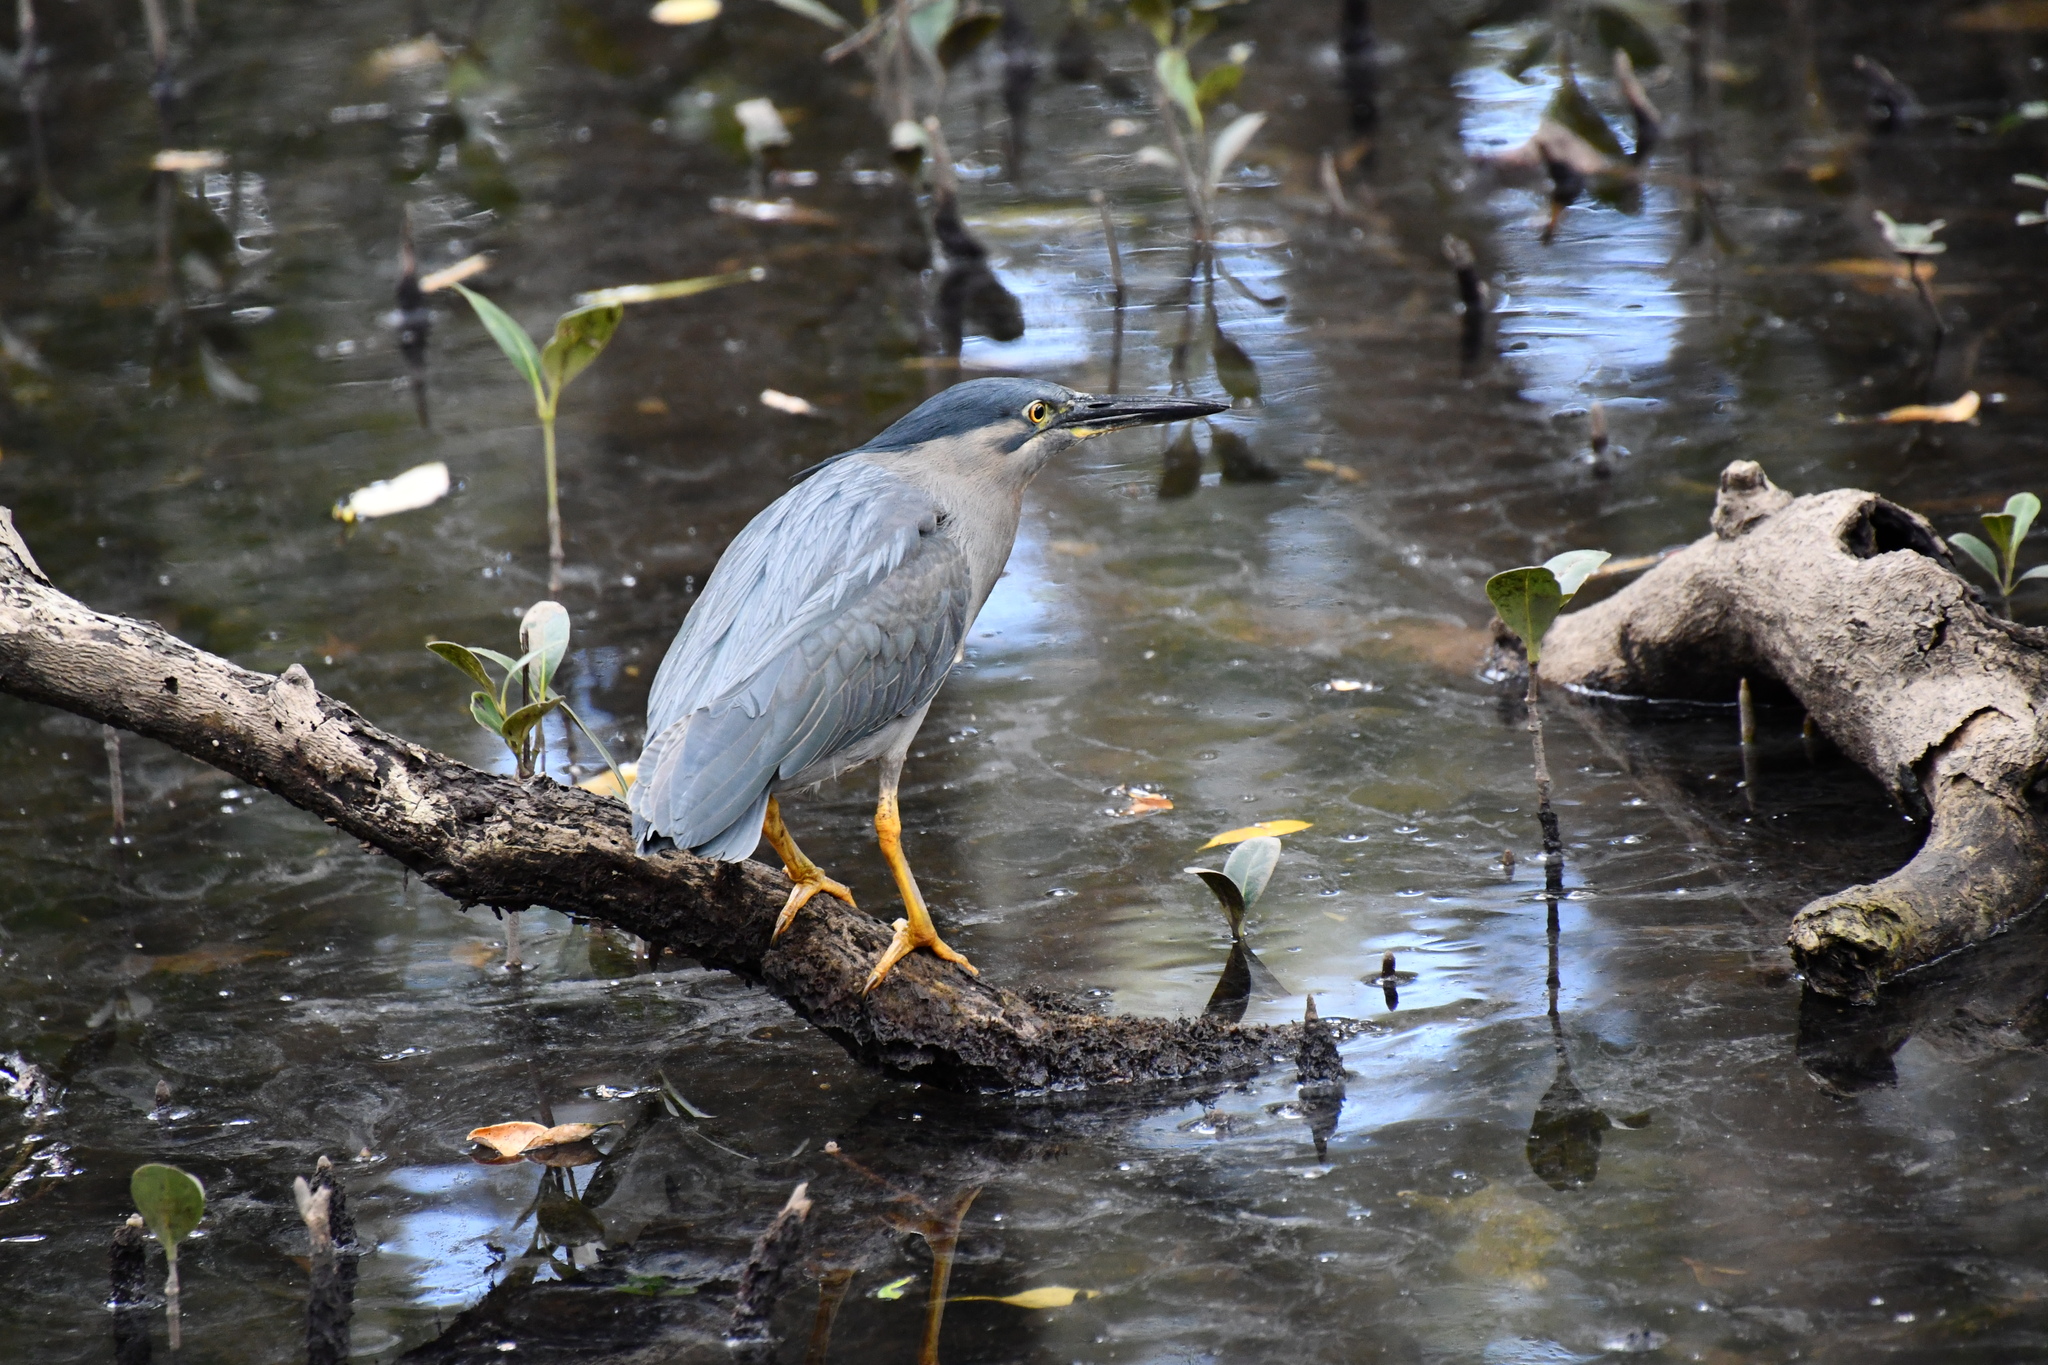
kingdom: Animalia
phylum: Chordata
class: Aves
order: Pelecaniformes
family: Ardeidae
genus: Butorides
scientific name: Butorides striata
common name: Striated heron
